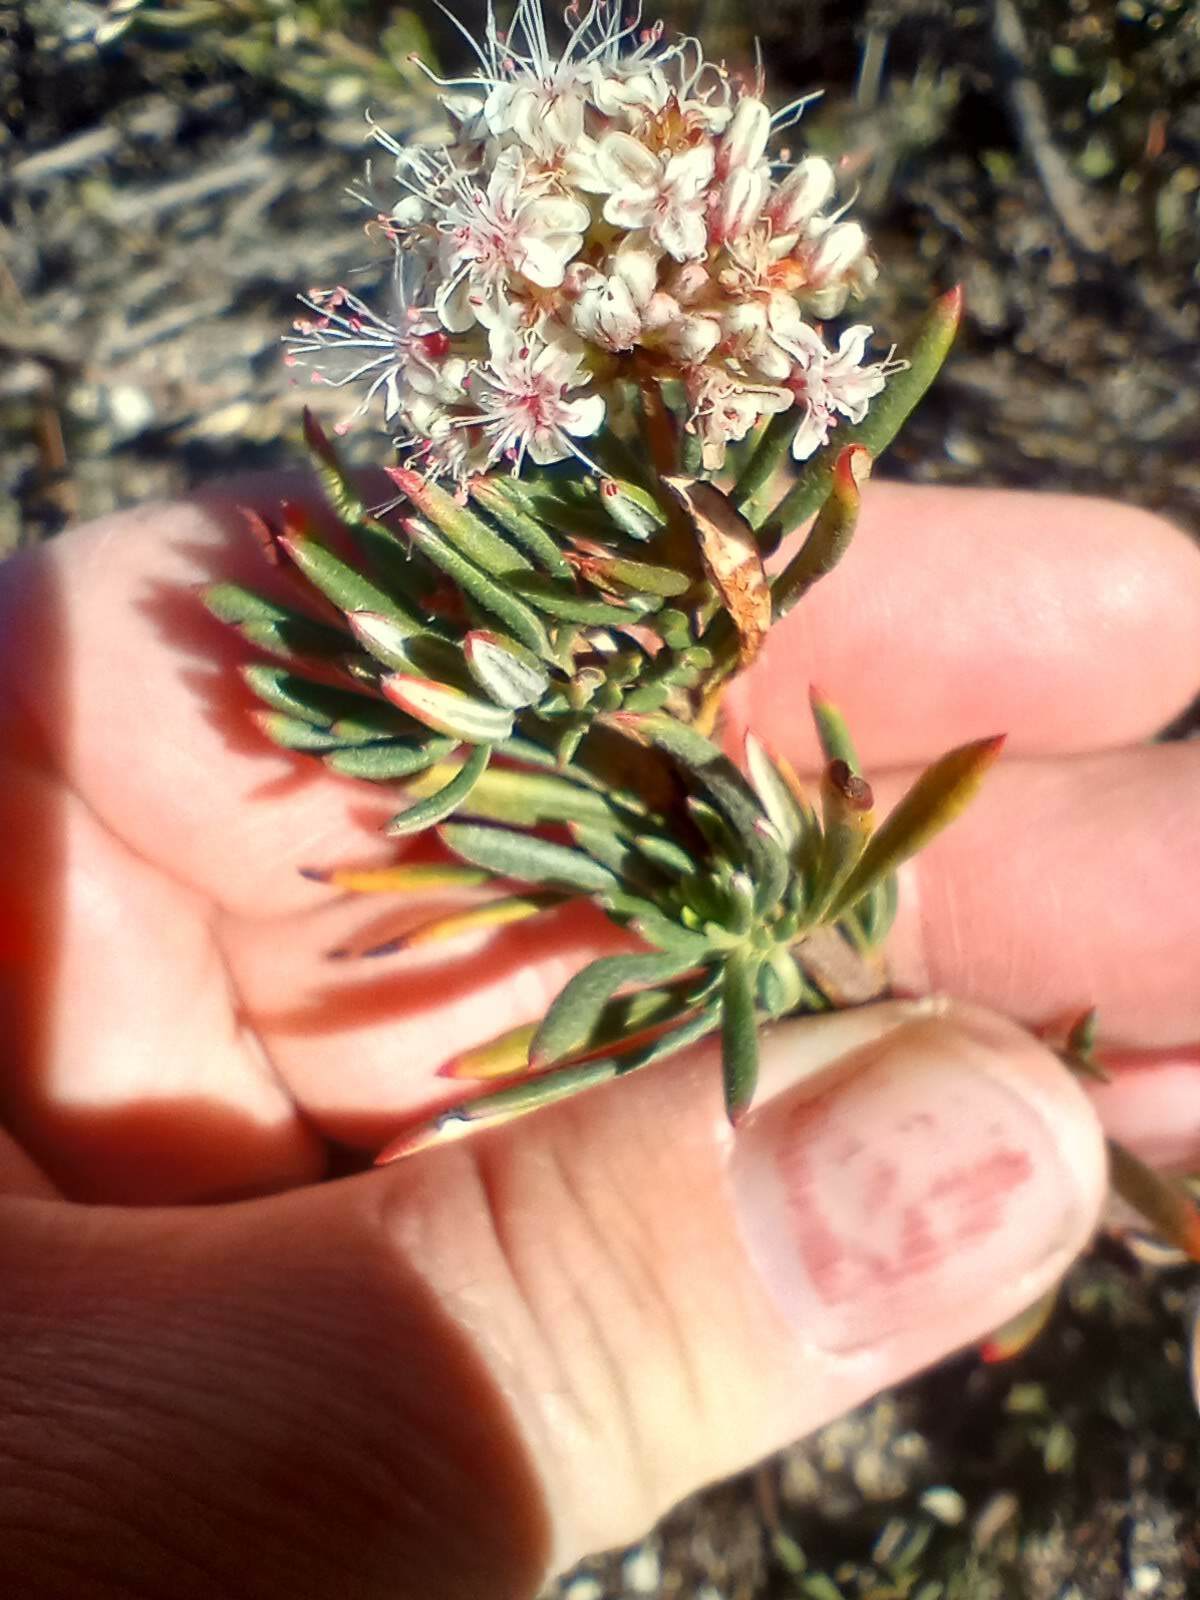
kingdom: Plantae
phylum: Tracheophyta
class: Magnoliopsida
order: Caryophyllales
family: Polygonaceae
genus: Eriogonum
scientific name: Eriogonum fasciculatum
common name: California wild buckwheat
